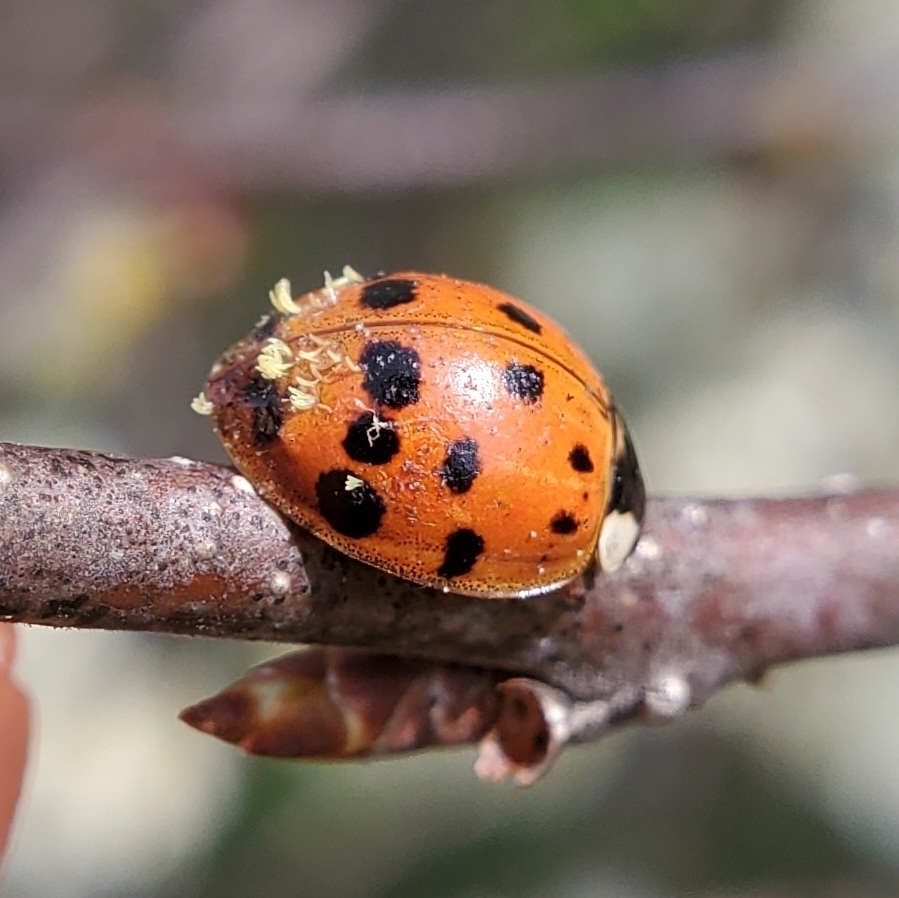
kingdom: Fungi
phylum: Ascomycota
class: Laboulbeniomycetes
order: Laboulbeniales
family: Laboulbeniaceae
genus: Hesperomyces
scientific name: Hesperomyces harmoniae
